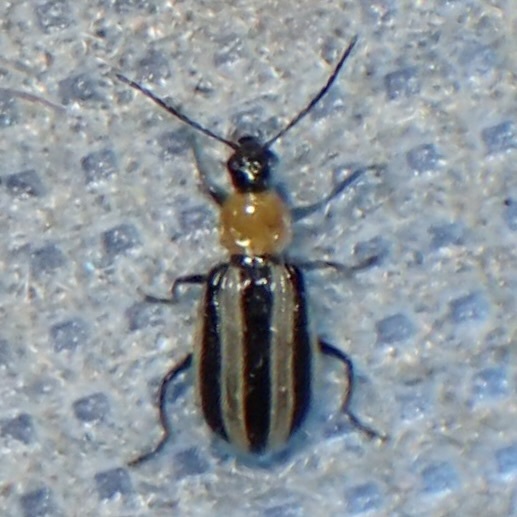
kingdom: Animalia
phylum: Arthropoda
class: Insecta
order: Coleoptera
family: Chrysomelidae
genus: Acalymma
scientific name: Acalymma trivittatum
